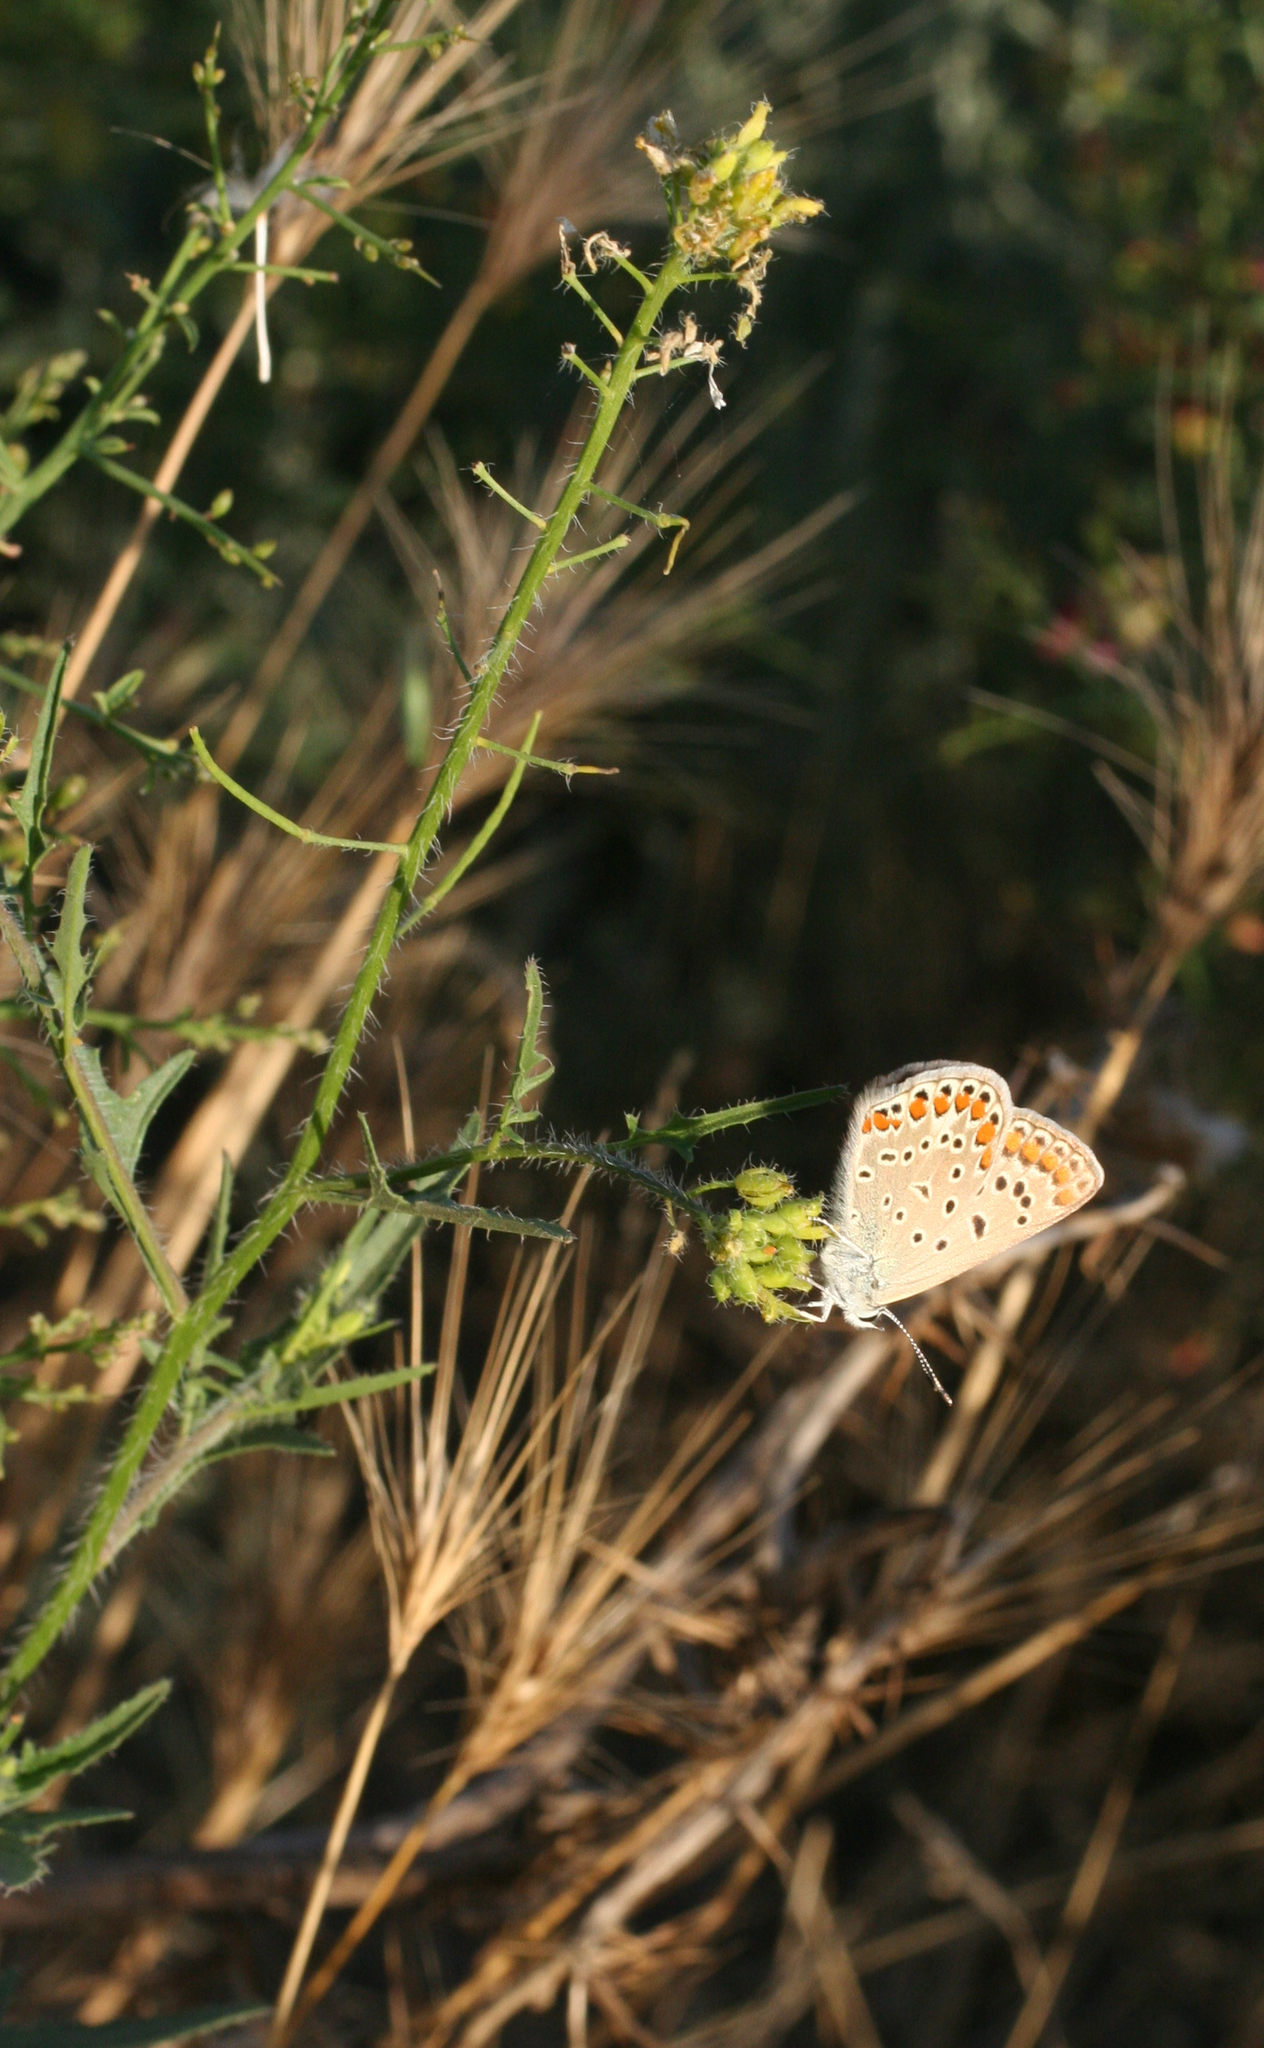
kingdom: Plantae
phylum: Tracheophyta
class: Magnoliopsida
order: Brassicales
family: Brassicaceae
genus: Sisymbrium
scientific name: Sisymbrium loeselii
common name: False london-rocket
